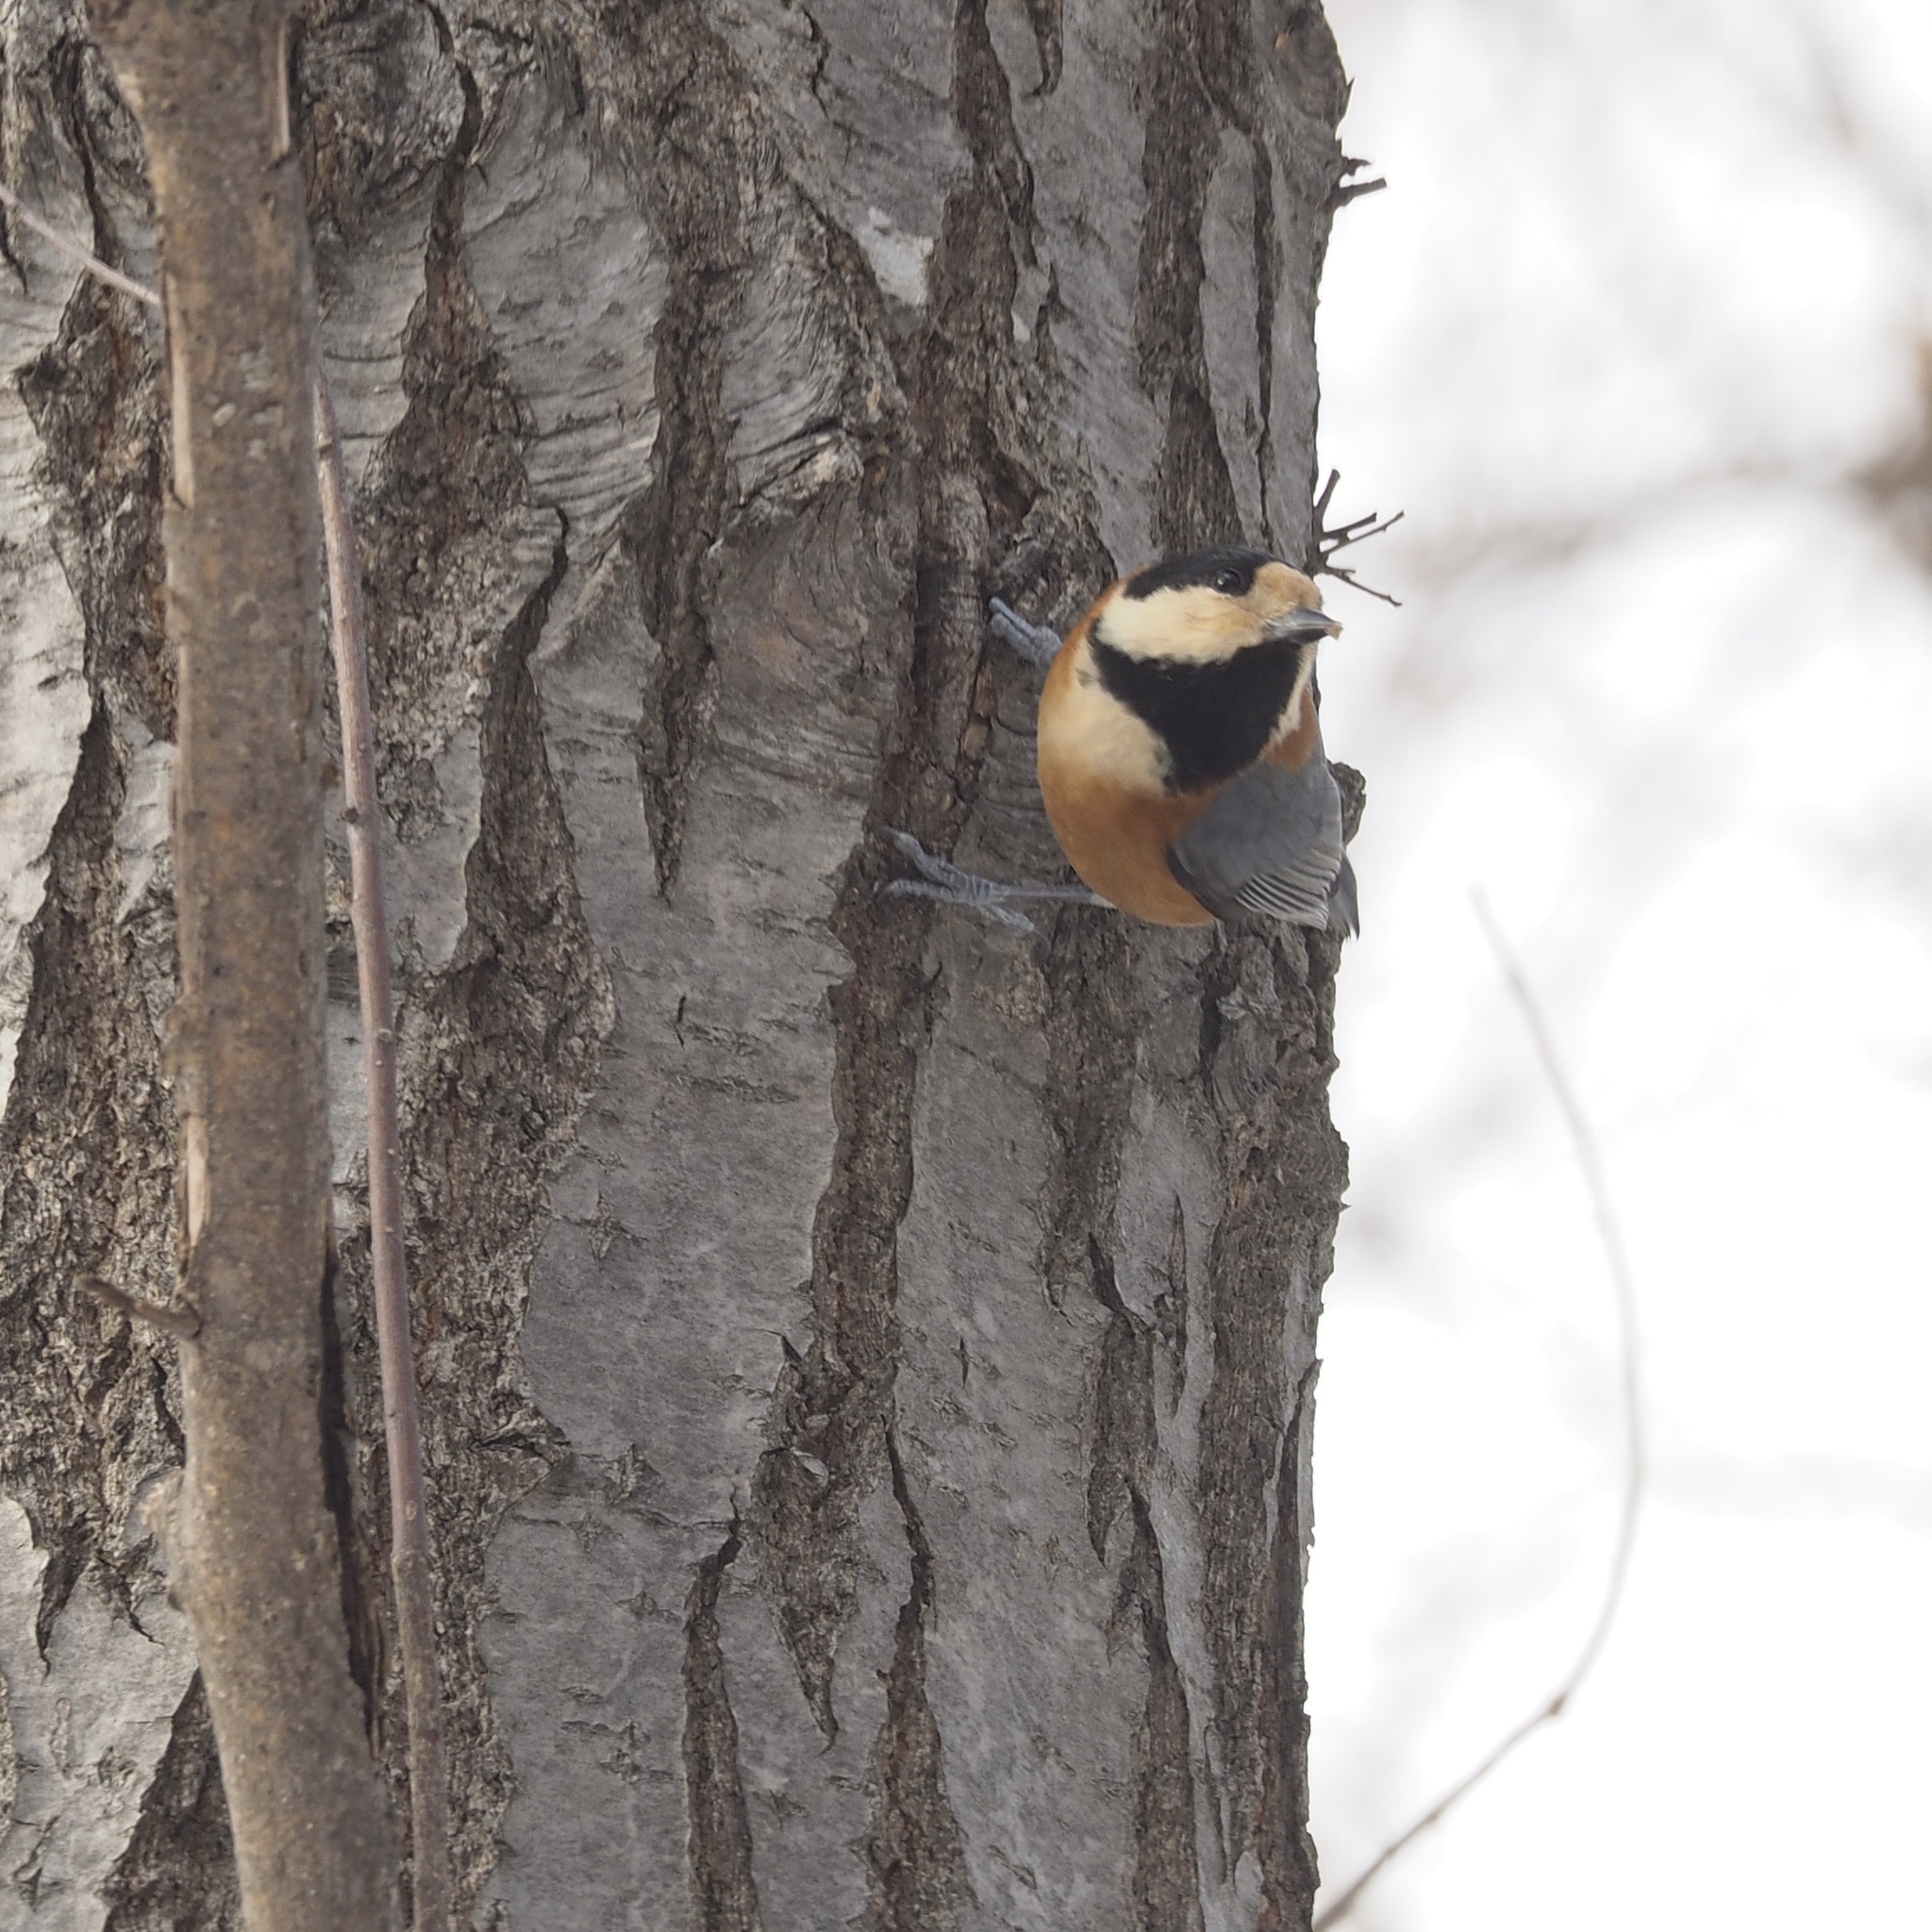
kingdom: Animalia
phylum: Chordata
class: Aves
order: Passeriformes
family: Paridae
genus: Poecile
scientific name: Poecile varius
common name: Varied tit
